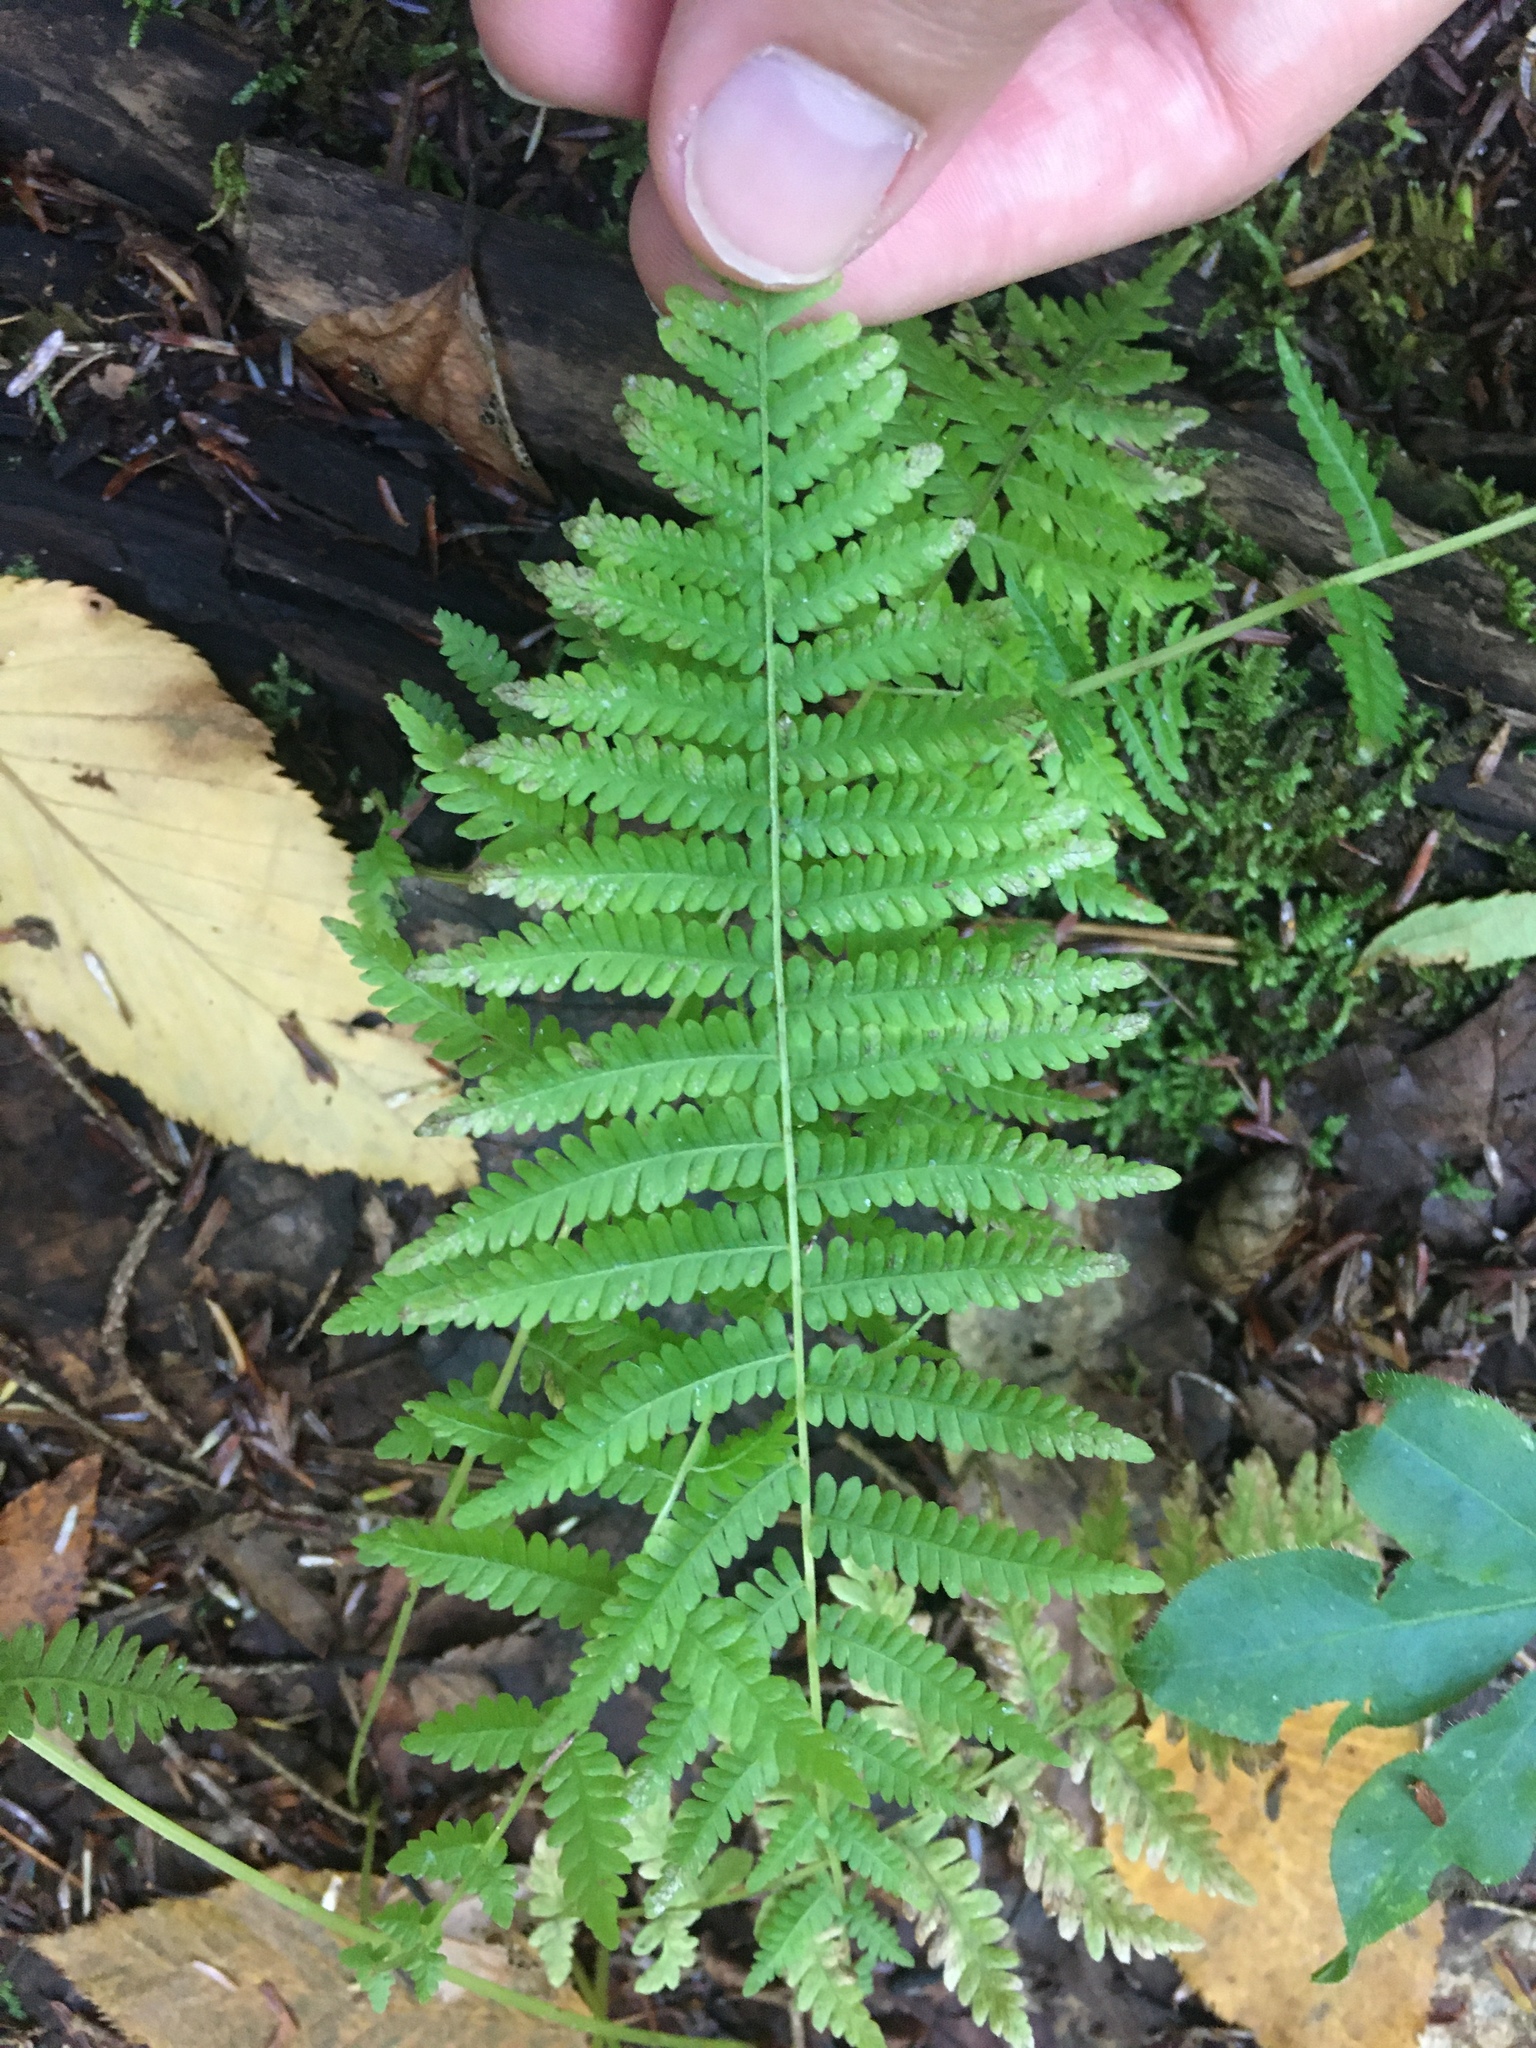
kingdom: Plantae
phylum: Tracheophyta
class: Polypodiopsida
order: Polypodiales
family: Thelypteridaceae
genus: Amauropelta
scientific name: Amauropelta noveboracensis
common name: New york fern
